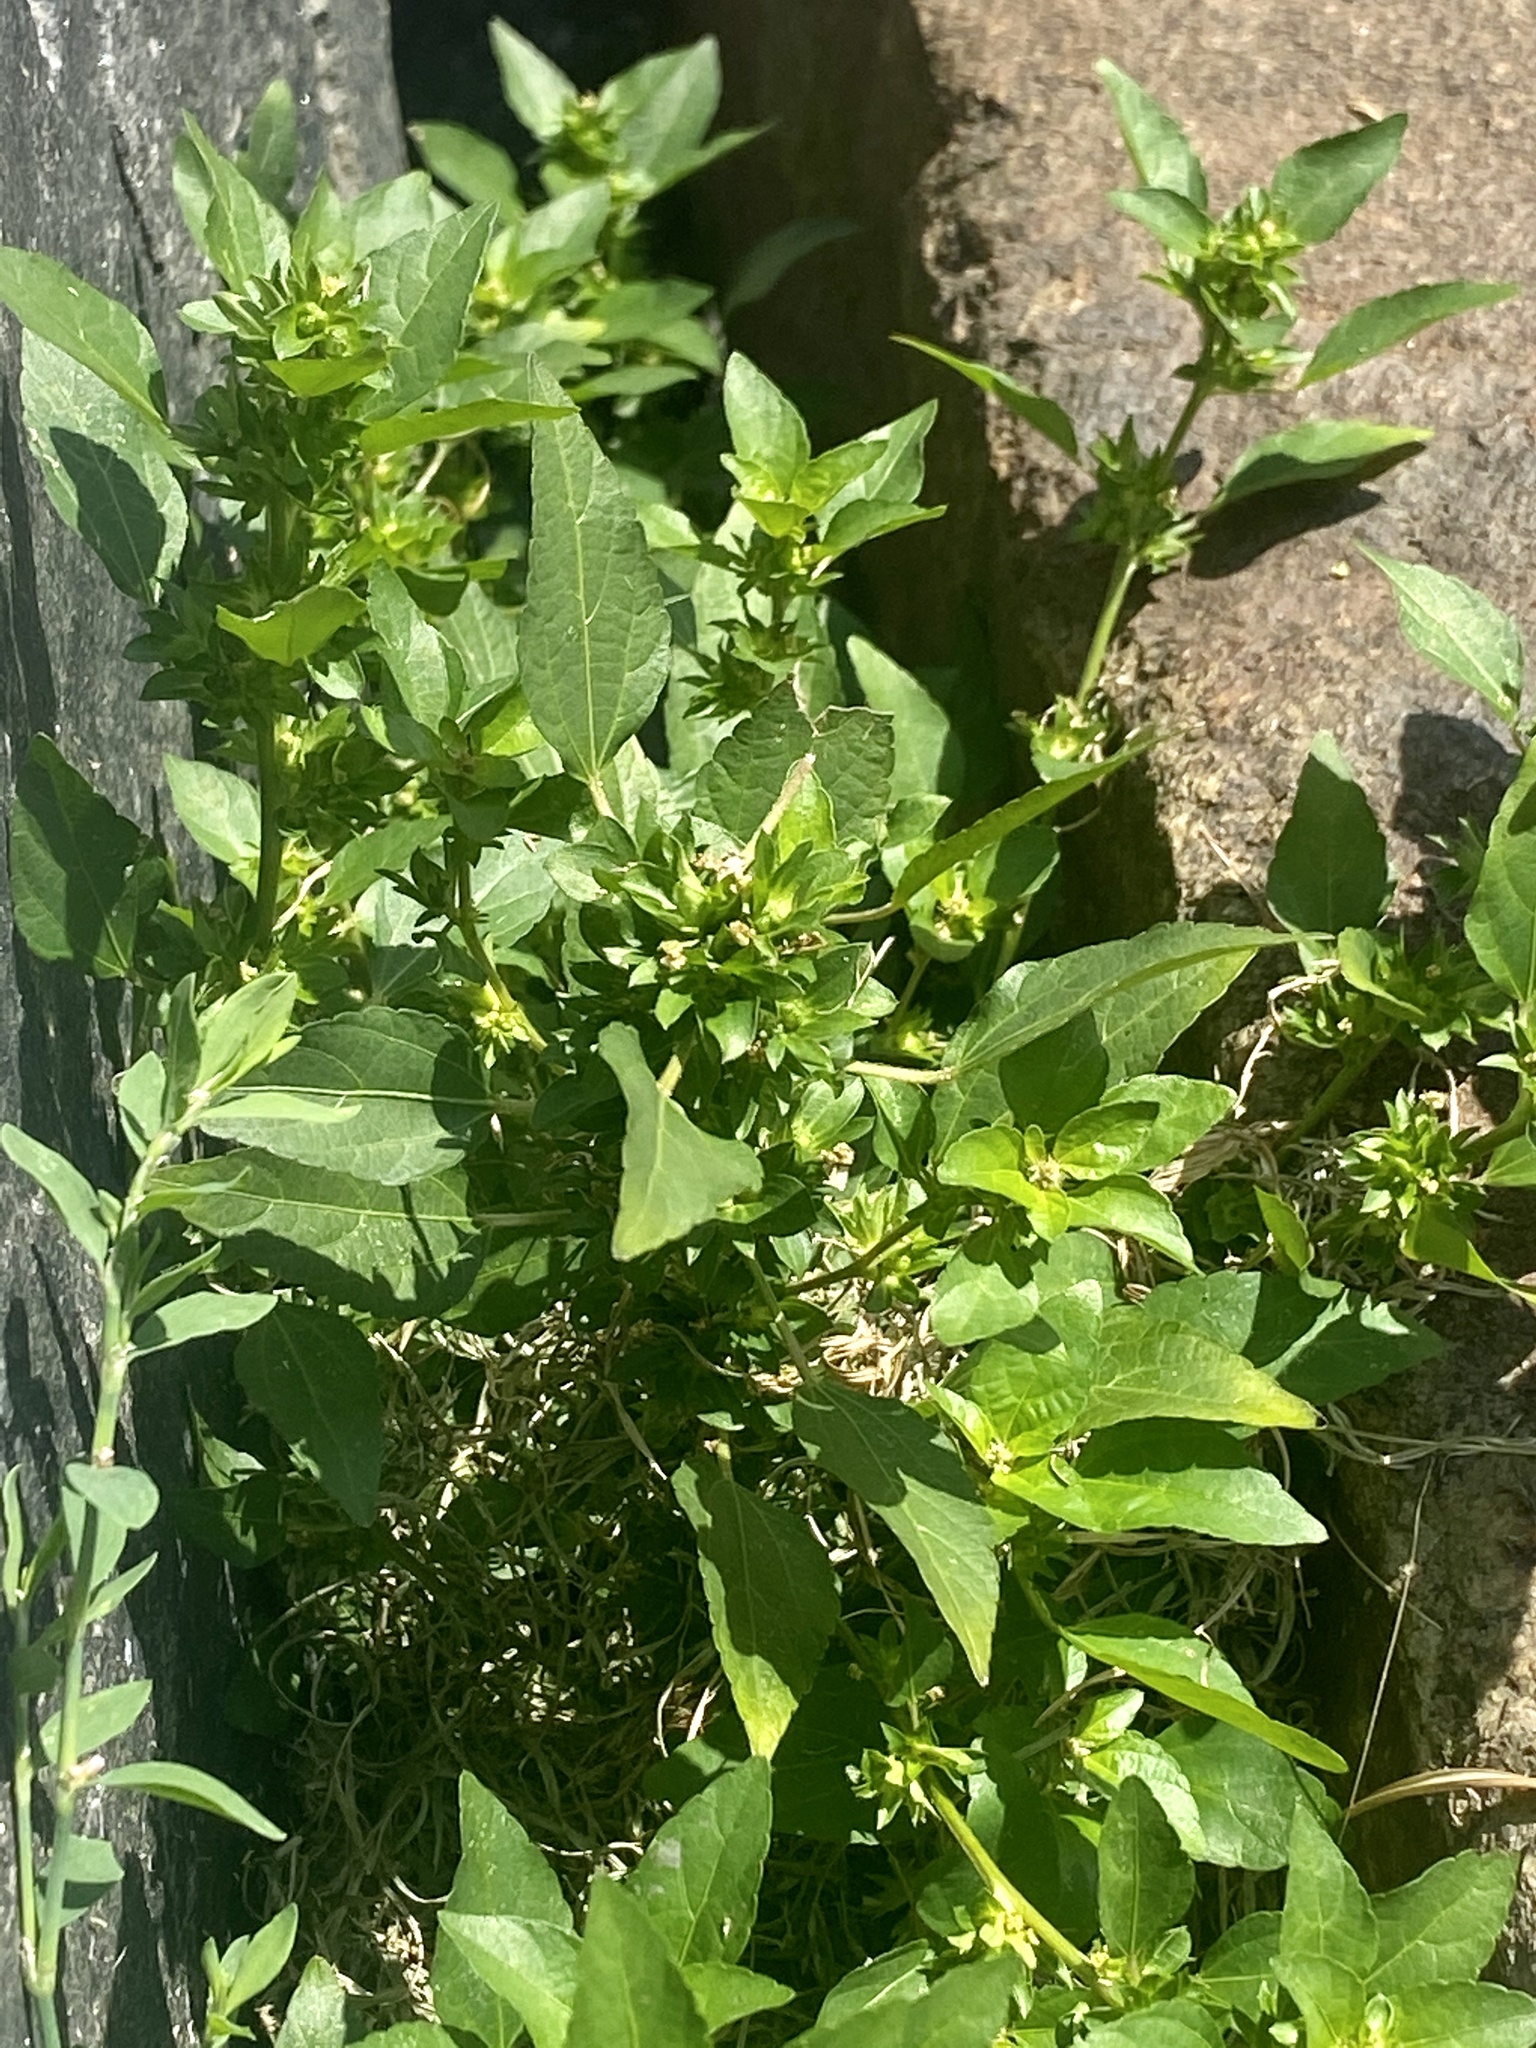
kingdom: Plantae
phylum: Tracheophyta
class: Magnoliopsida
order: Malpighiales
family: Euphorbiaceae
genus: Acalypha
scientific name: Acalypha rhomboidea
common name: Rhombic copperleaf
